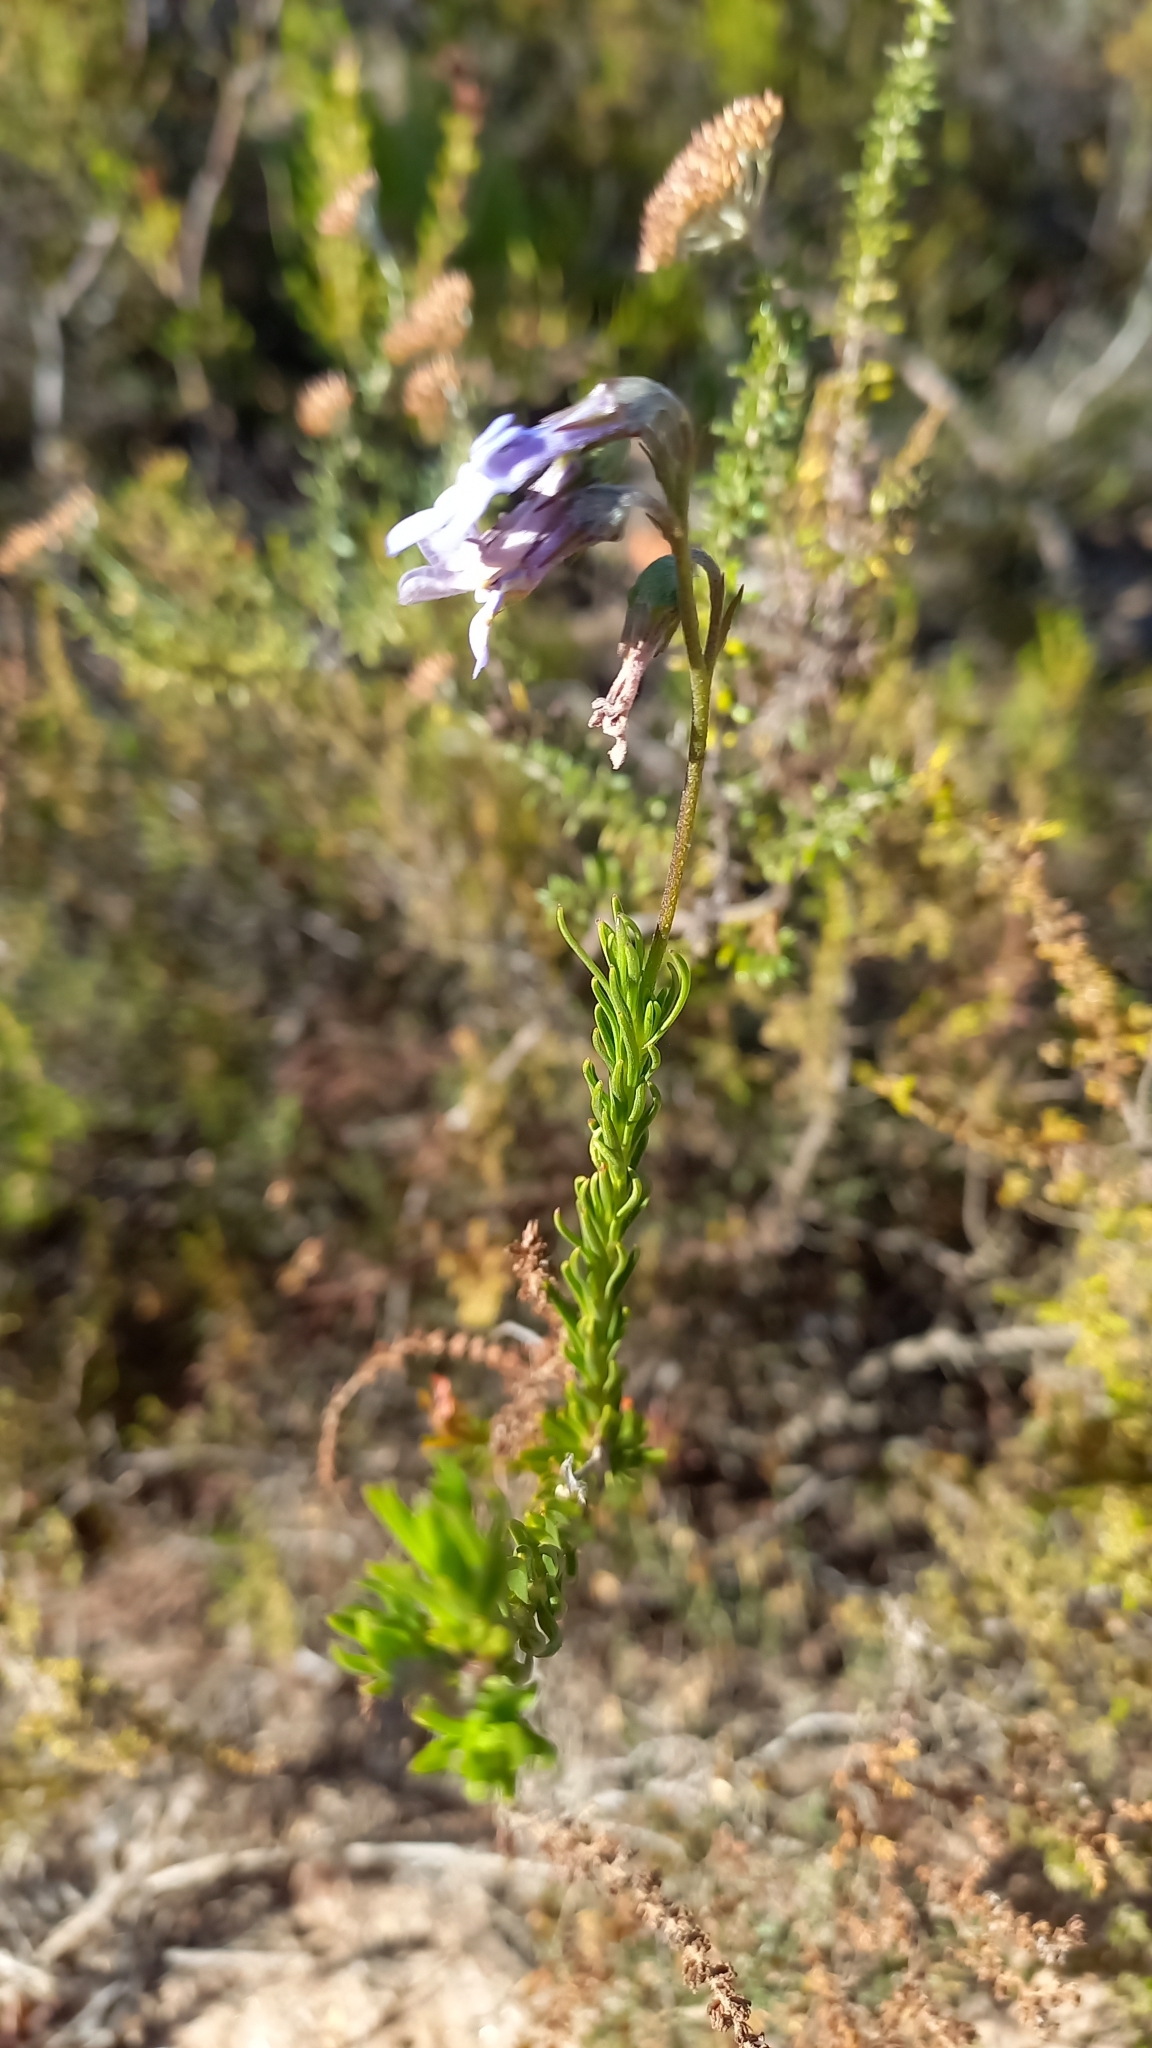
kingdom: Plantae
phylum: Tracheophyta
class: Magnoliopsida
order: Asterales
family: Campanulaceae
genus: Lobelia
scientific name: Lobelia pinifolia
